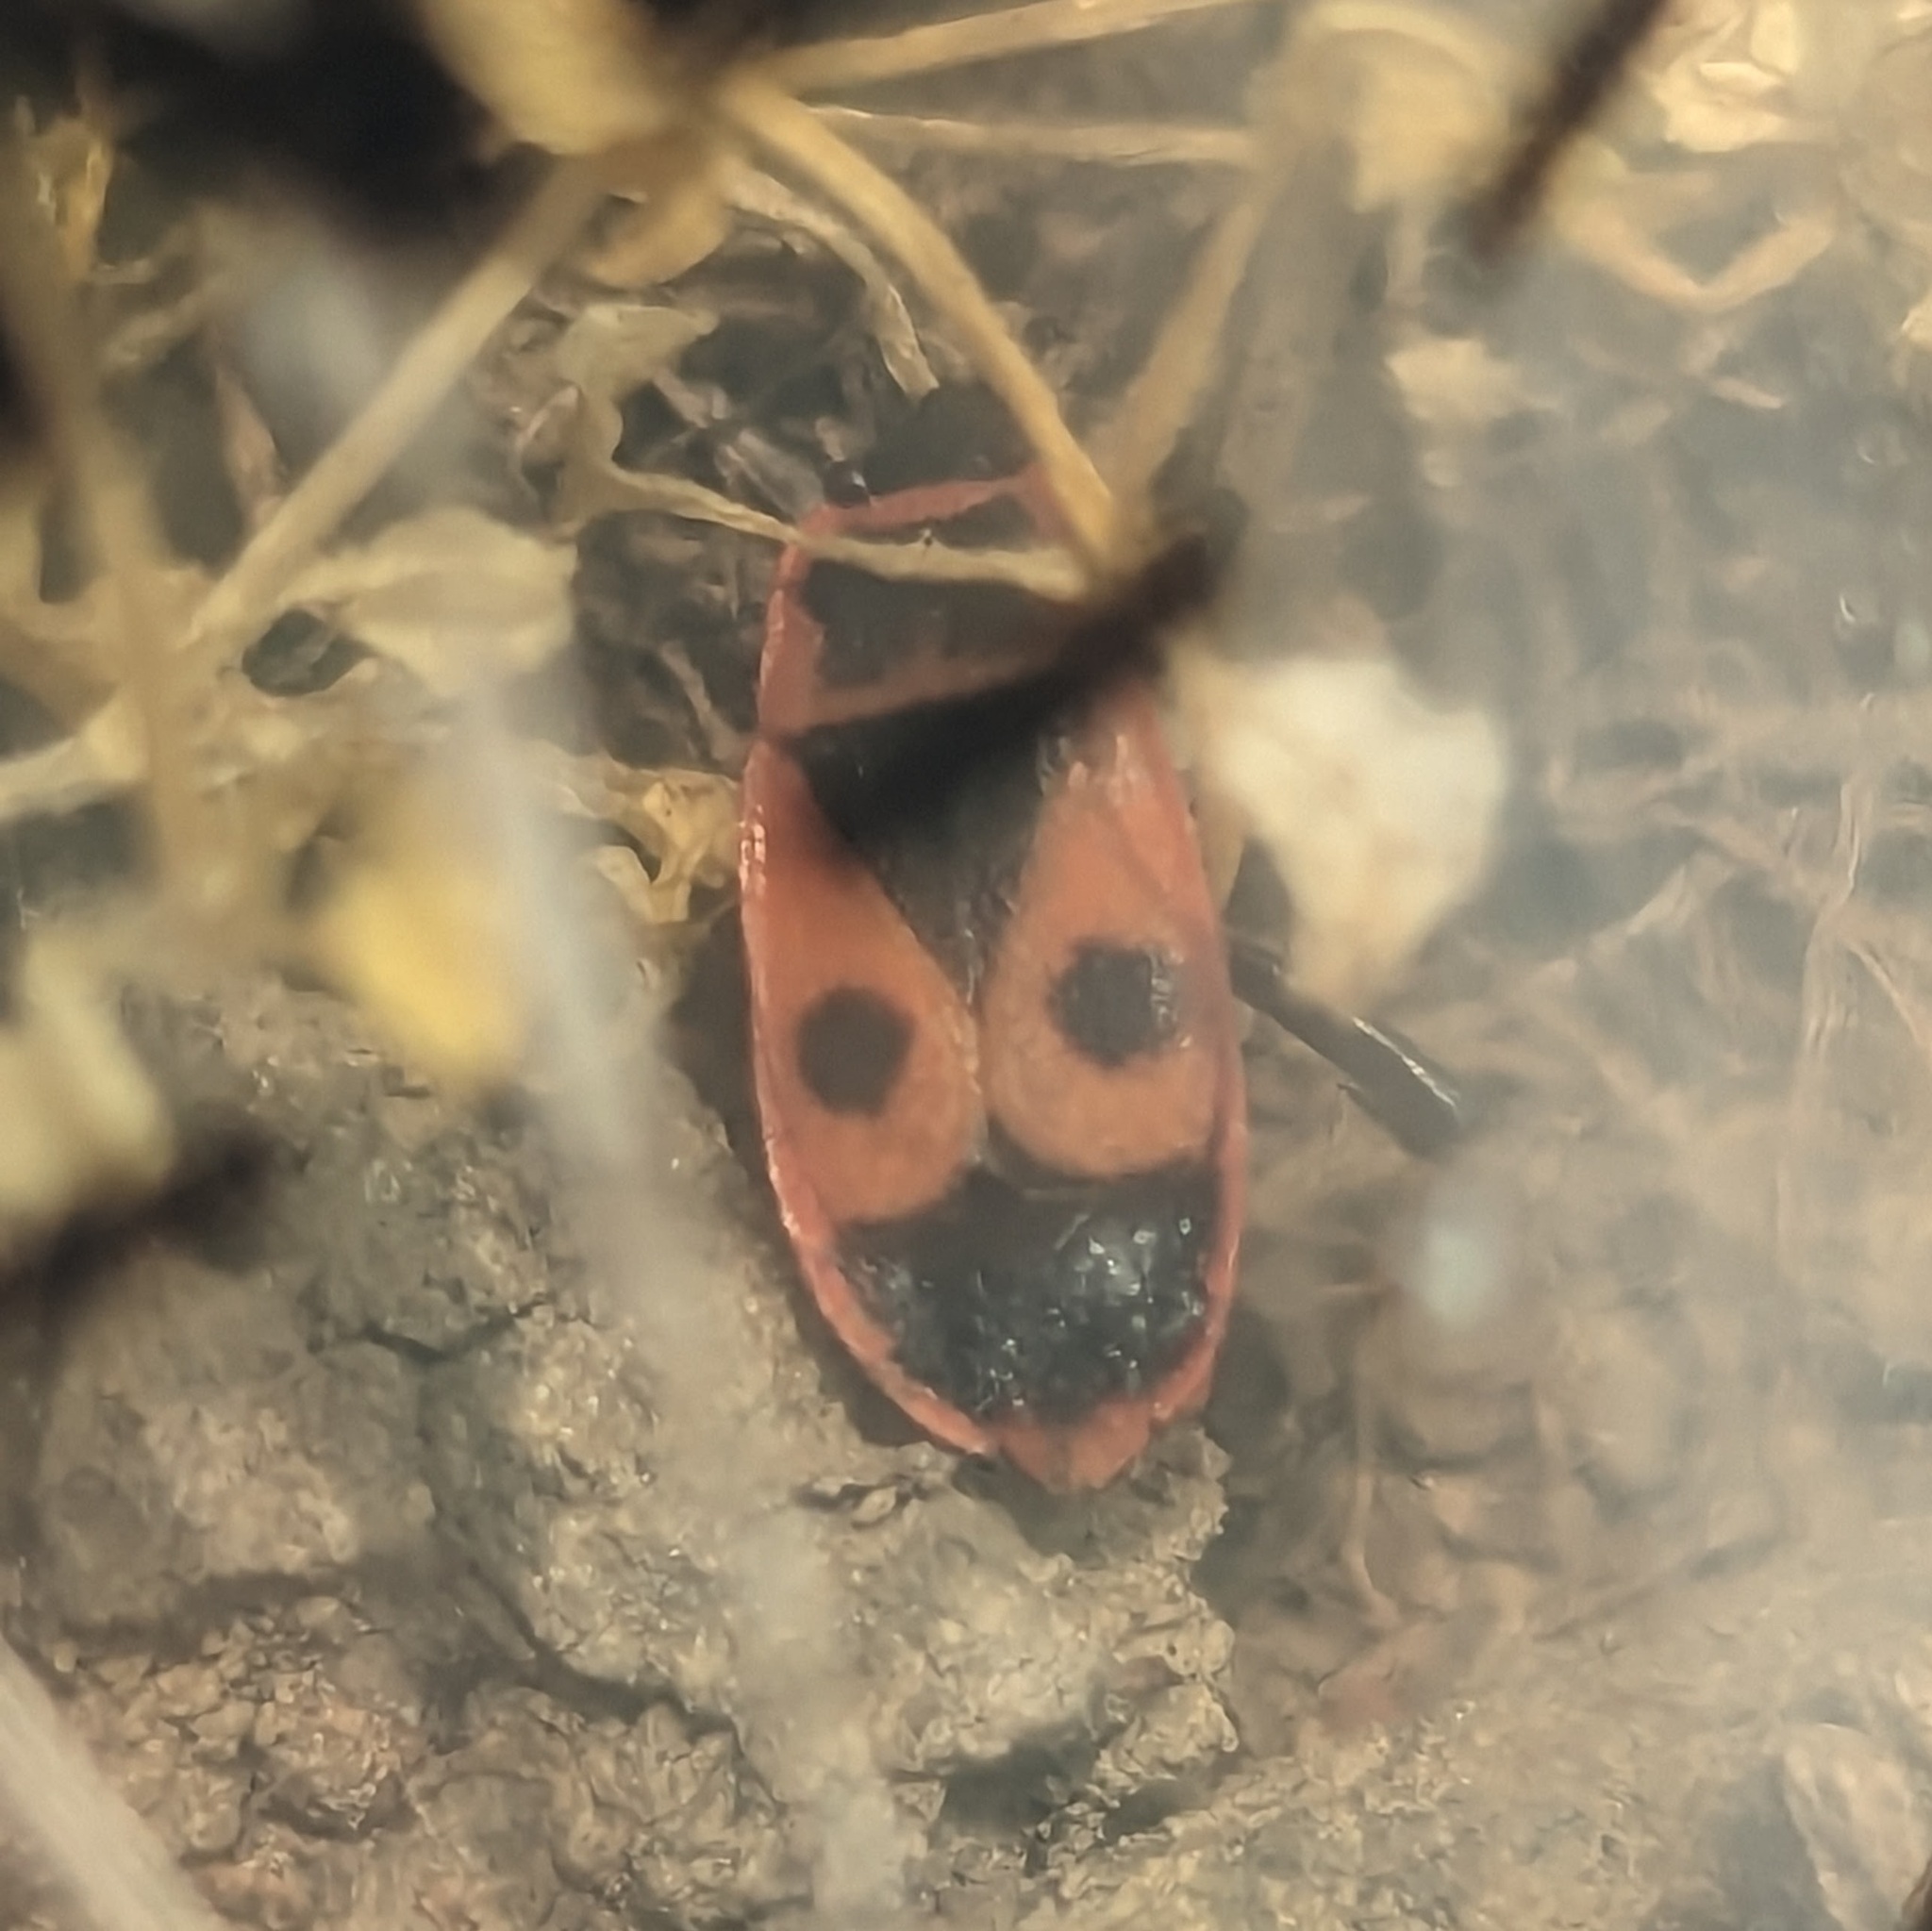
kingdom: Animalia
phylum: Arthropoda
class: Insecta
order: Hemiptera
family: Pyrrhocoridae
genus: Pyrrhocoris
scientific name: Pyrrhocoris apterus
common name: Firebug
